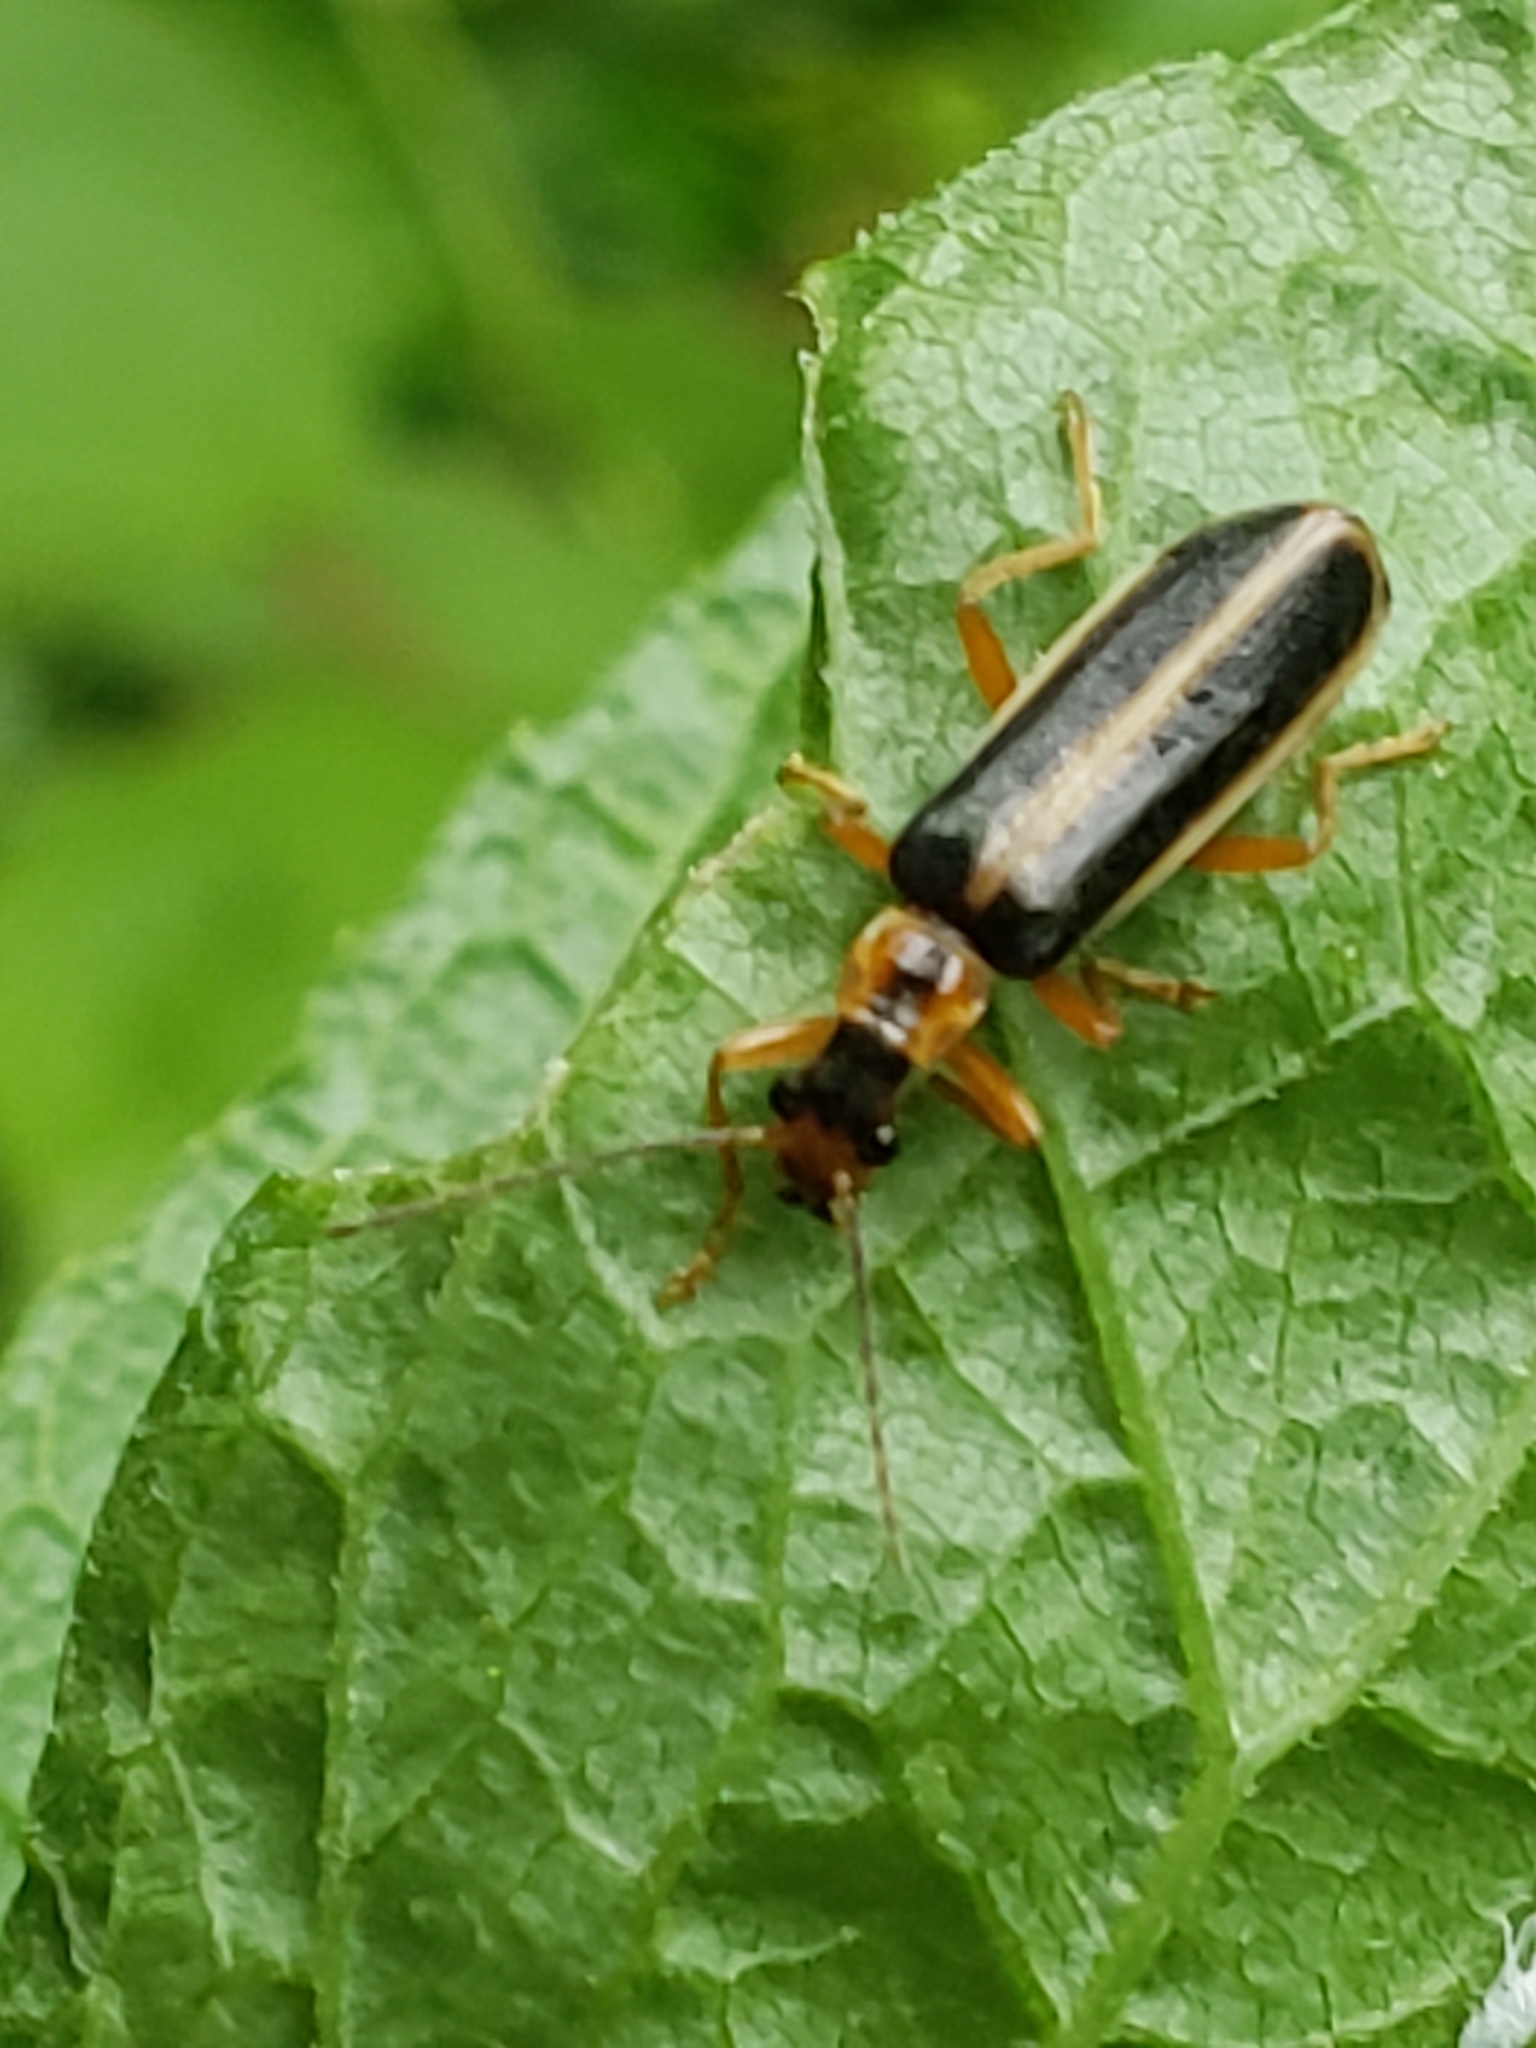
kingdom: Animalia
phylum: Arthropoda
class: Insecta
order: Coleoptera
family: Cantharidae
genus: Podabrus
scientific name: Podabrus brunnicollis
